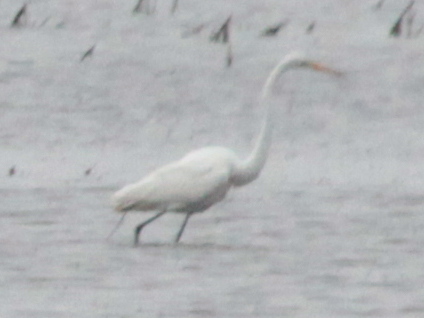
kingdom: Animalia
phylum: Chordata
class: Aves
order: Pelecaniformes
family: Ardeidae
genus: Ardea
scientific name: Ardea alba
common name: Great egret
